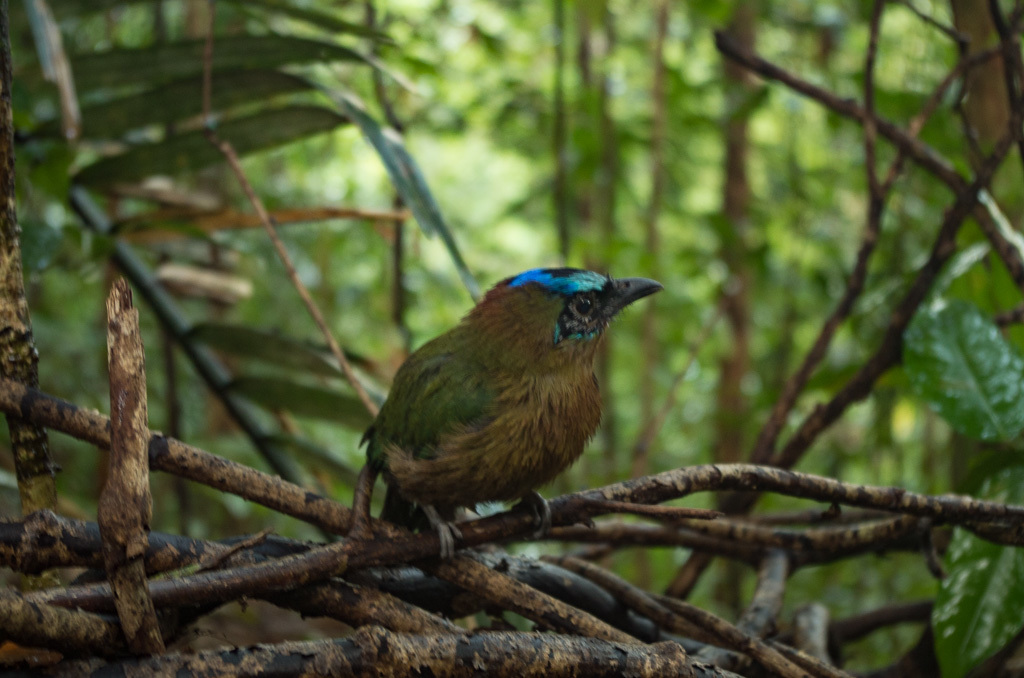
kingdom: Animalia
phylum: Chordata
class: Aves
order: Coraciiformes
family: Momotidae
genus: Momotus
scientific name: Momotus momota
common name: Amazonian motmot
